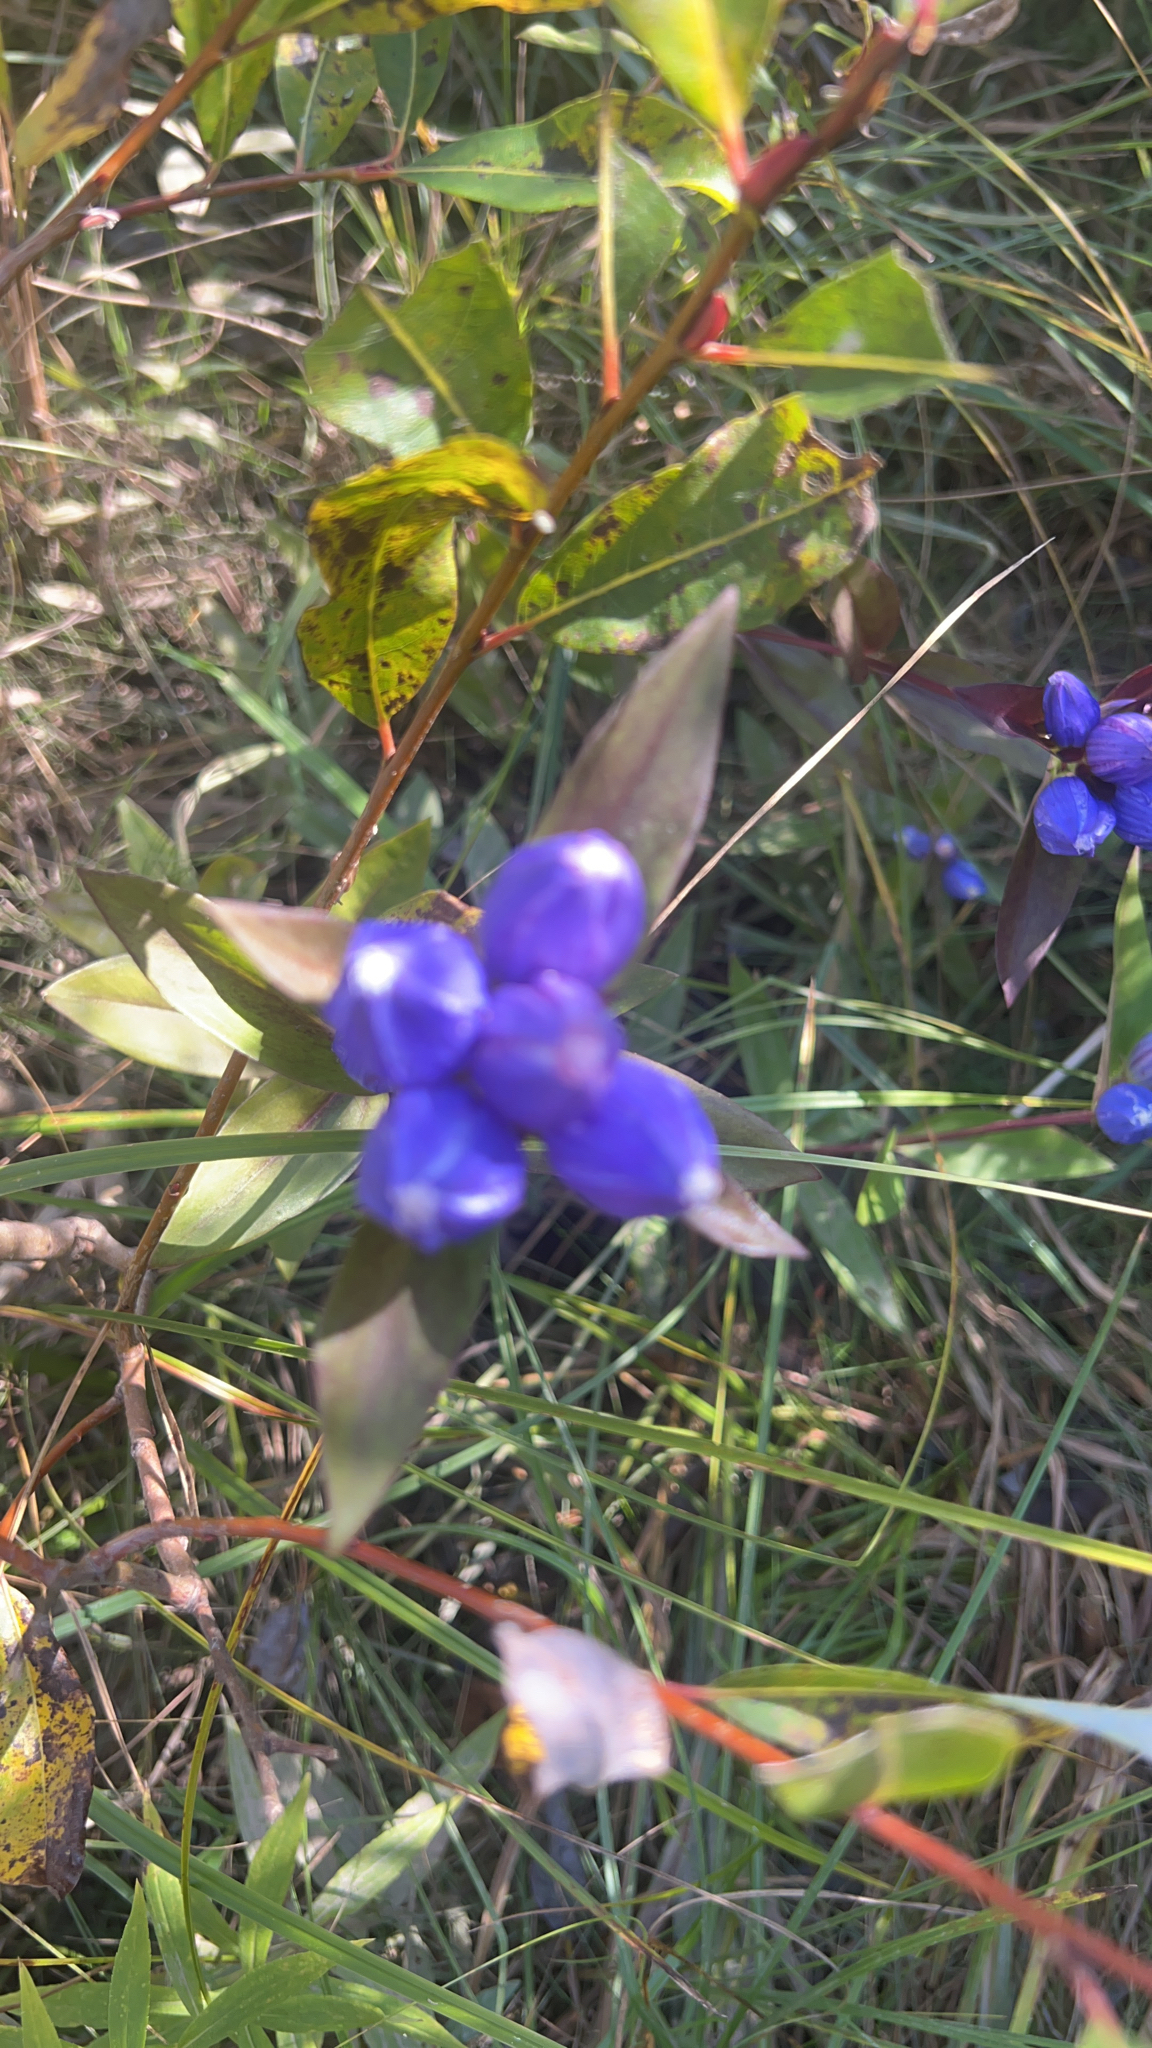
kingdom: Plantae
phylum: Tracheophyta
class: Magnoliopsida
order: Gentianales
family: Gentianaceae
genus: Gentiana
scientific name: Gentiana andrewsii
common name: Bottle gentian
